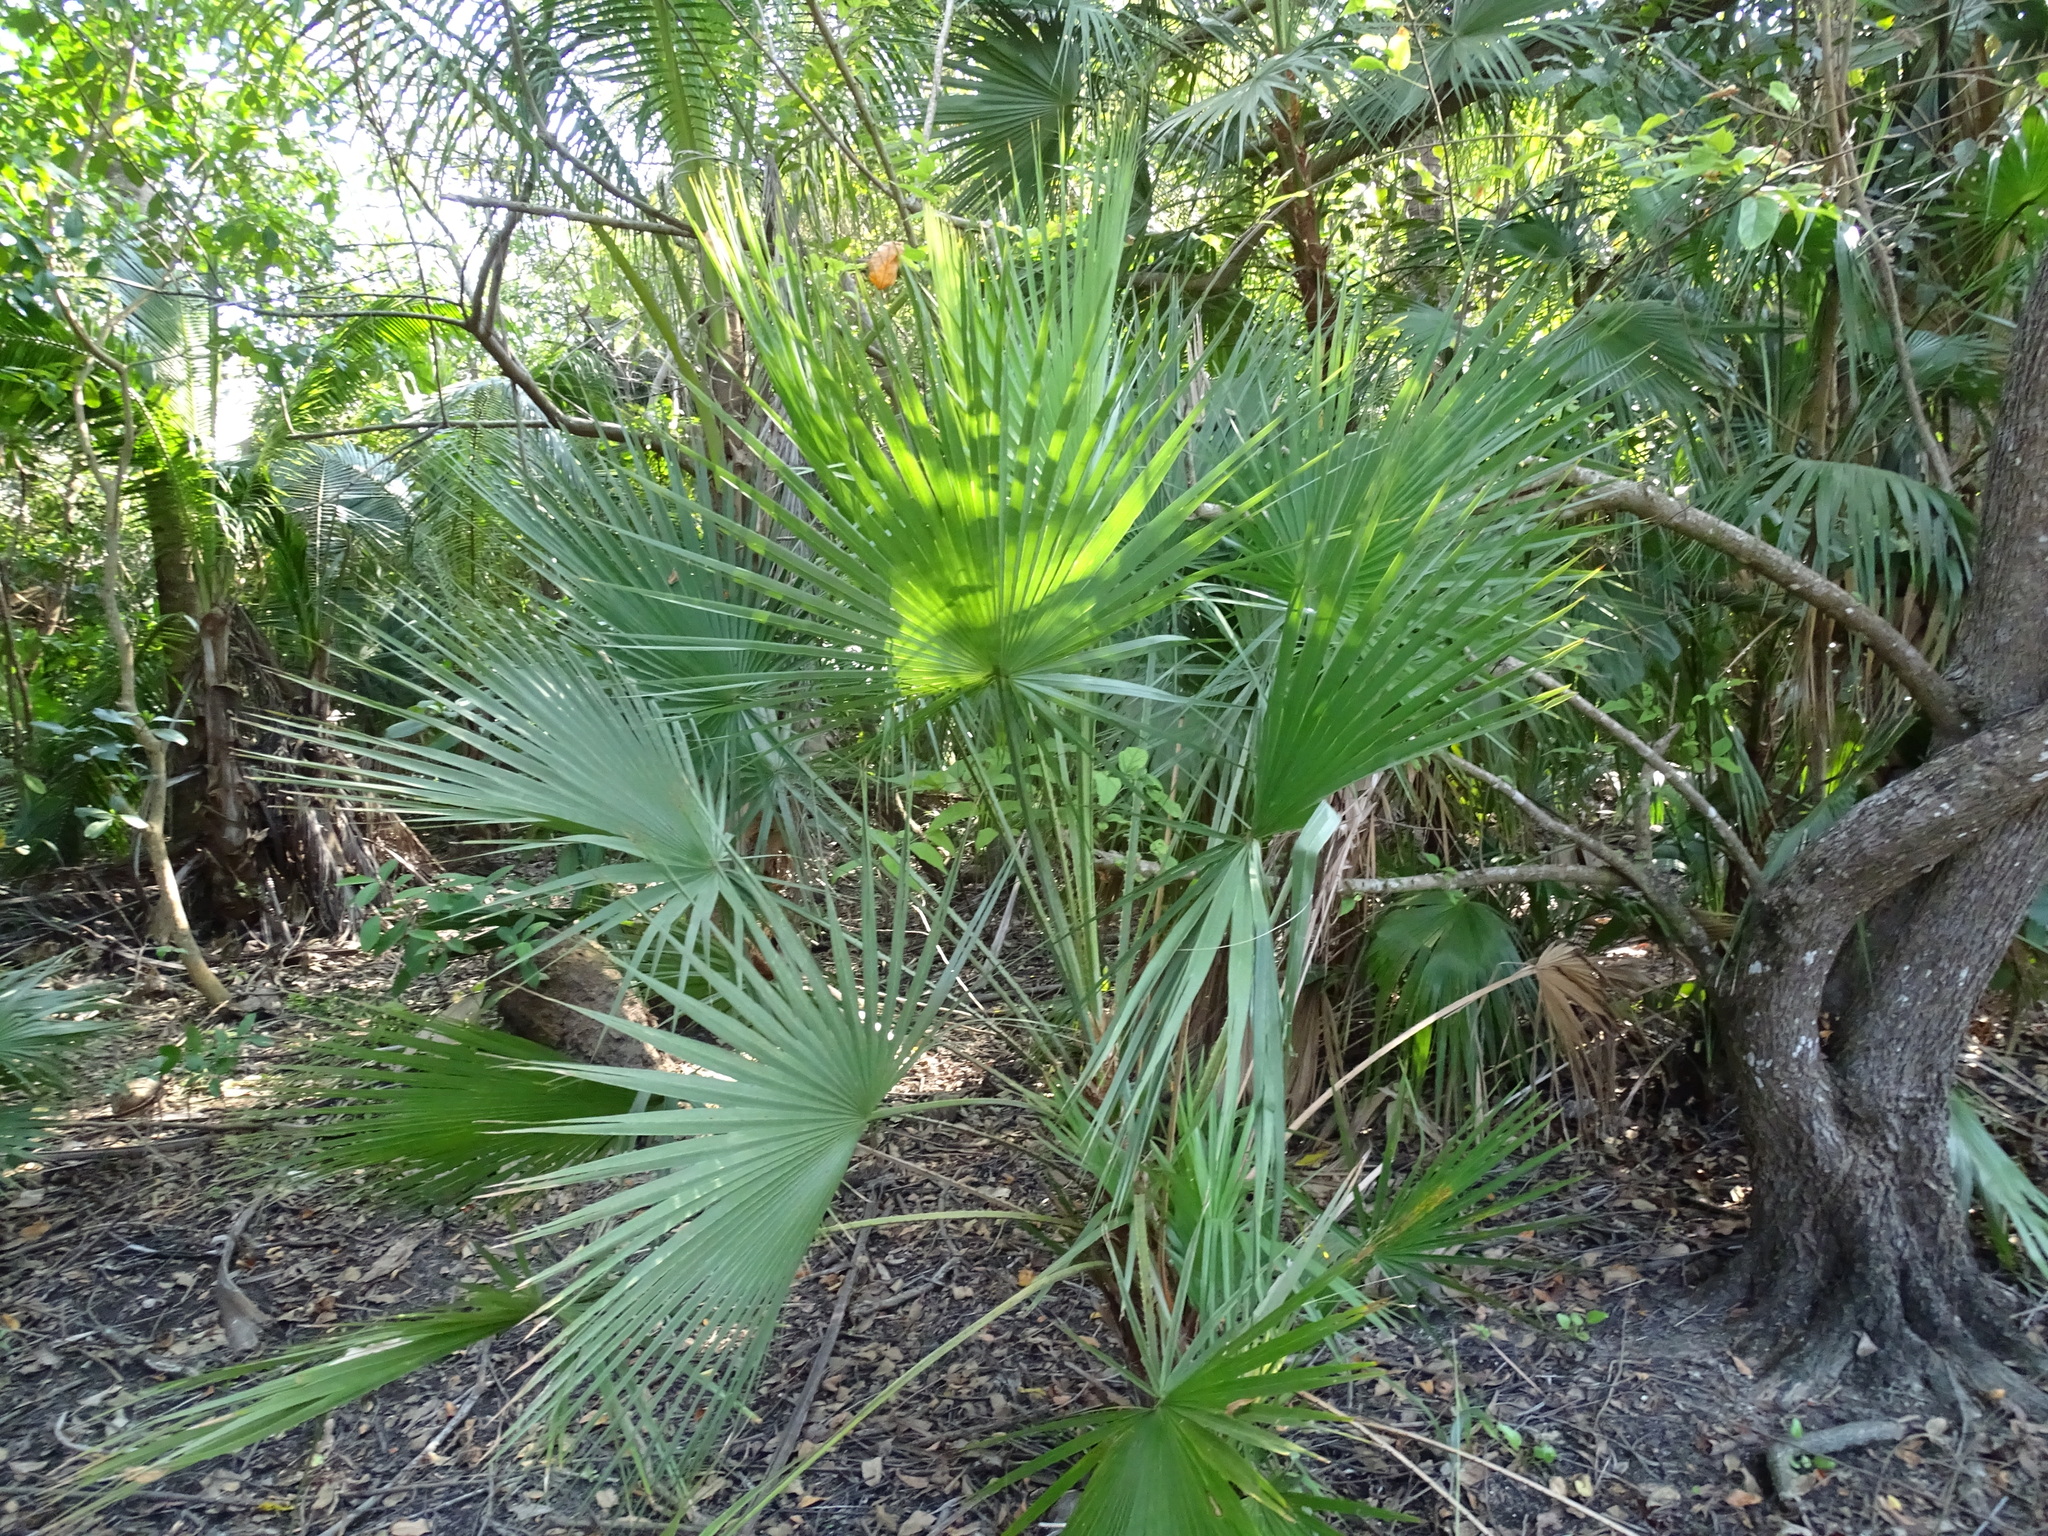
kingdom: Plantae
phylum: Tracheophyta
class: Liliopsida
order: Arecales
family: Arecaceae
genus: Thrinax
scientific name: Thrinax radiata
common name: Florida thatch
